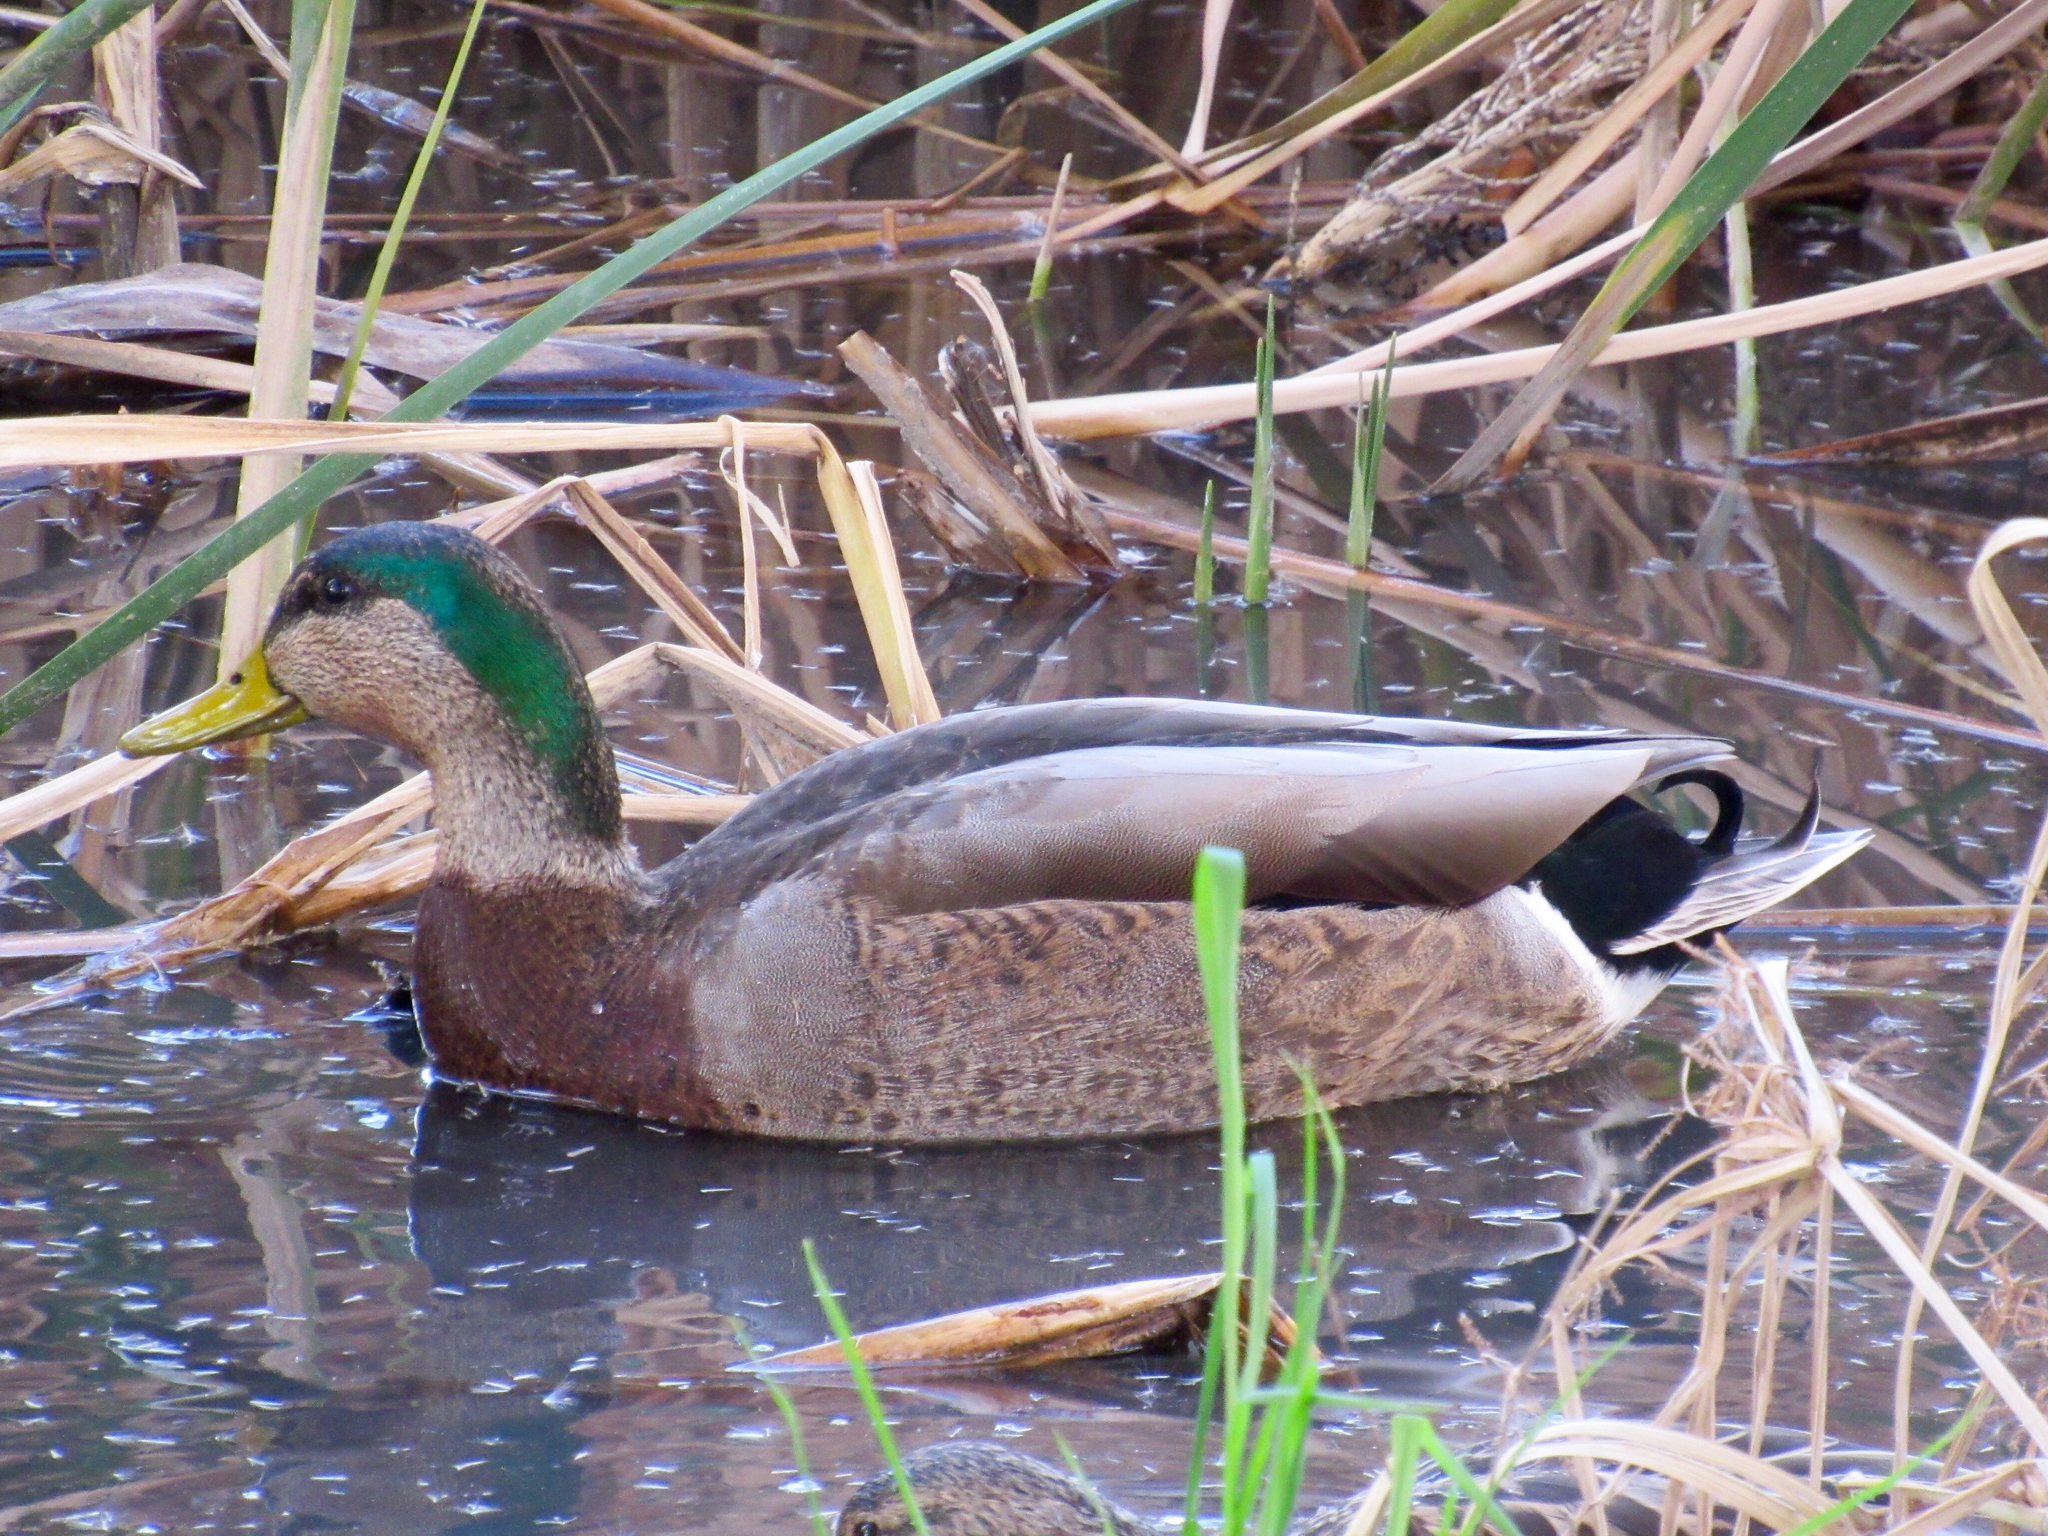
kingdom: Animalia
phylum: Chordata
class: Aves
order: Anseriformes
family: Anatidae
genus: Anas
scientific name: Anas
